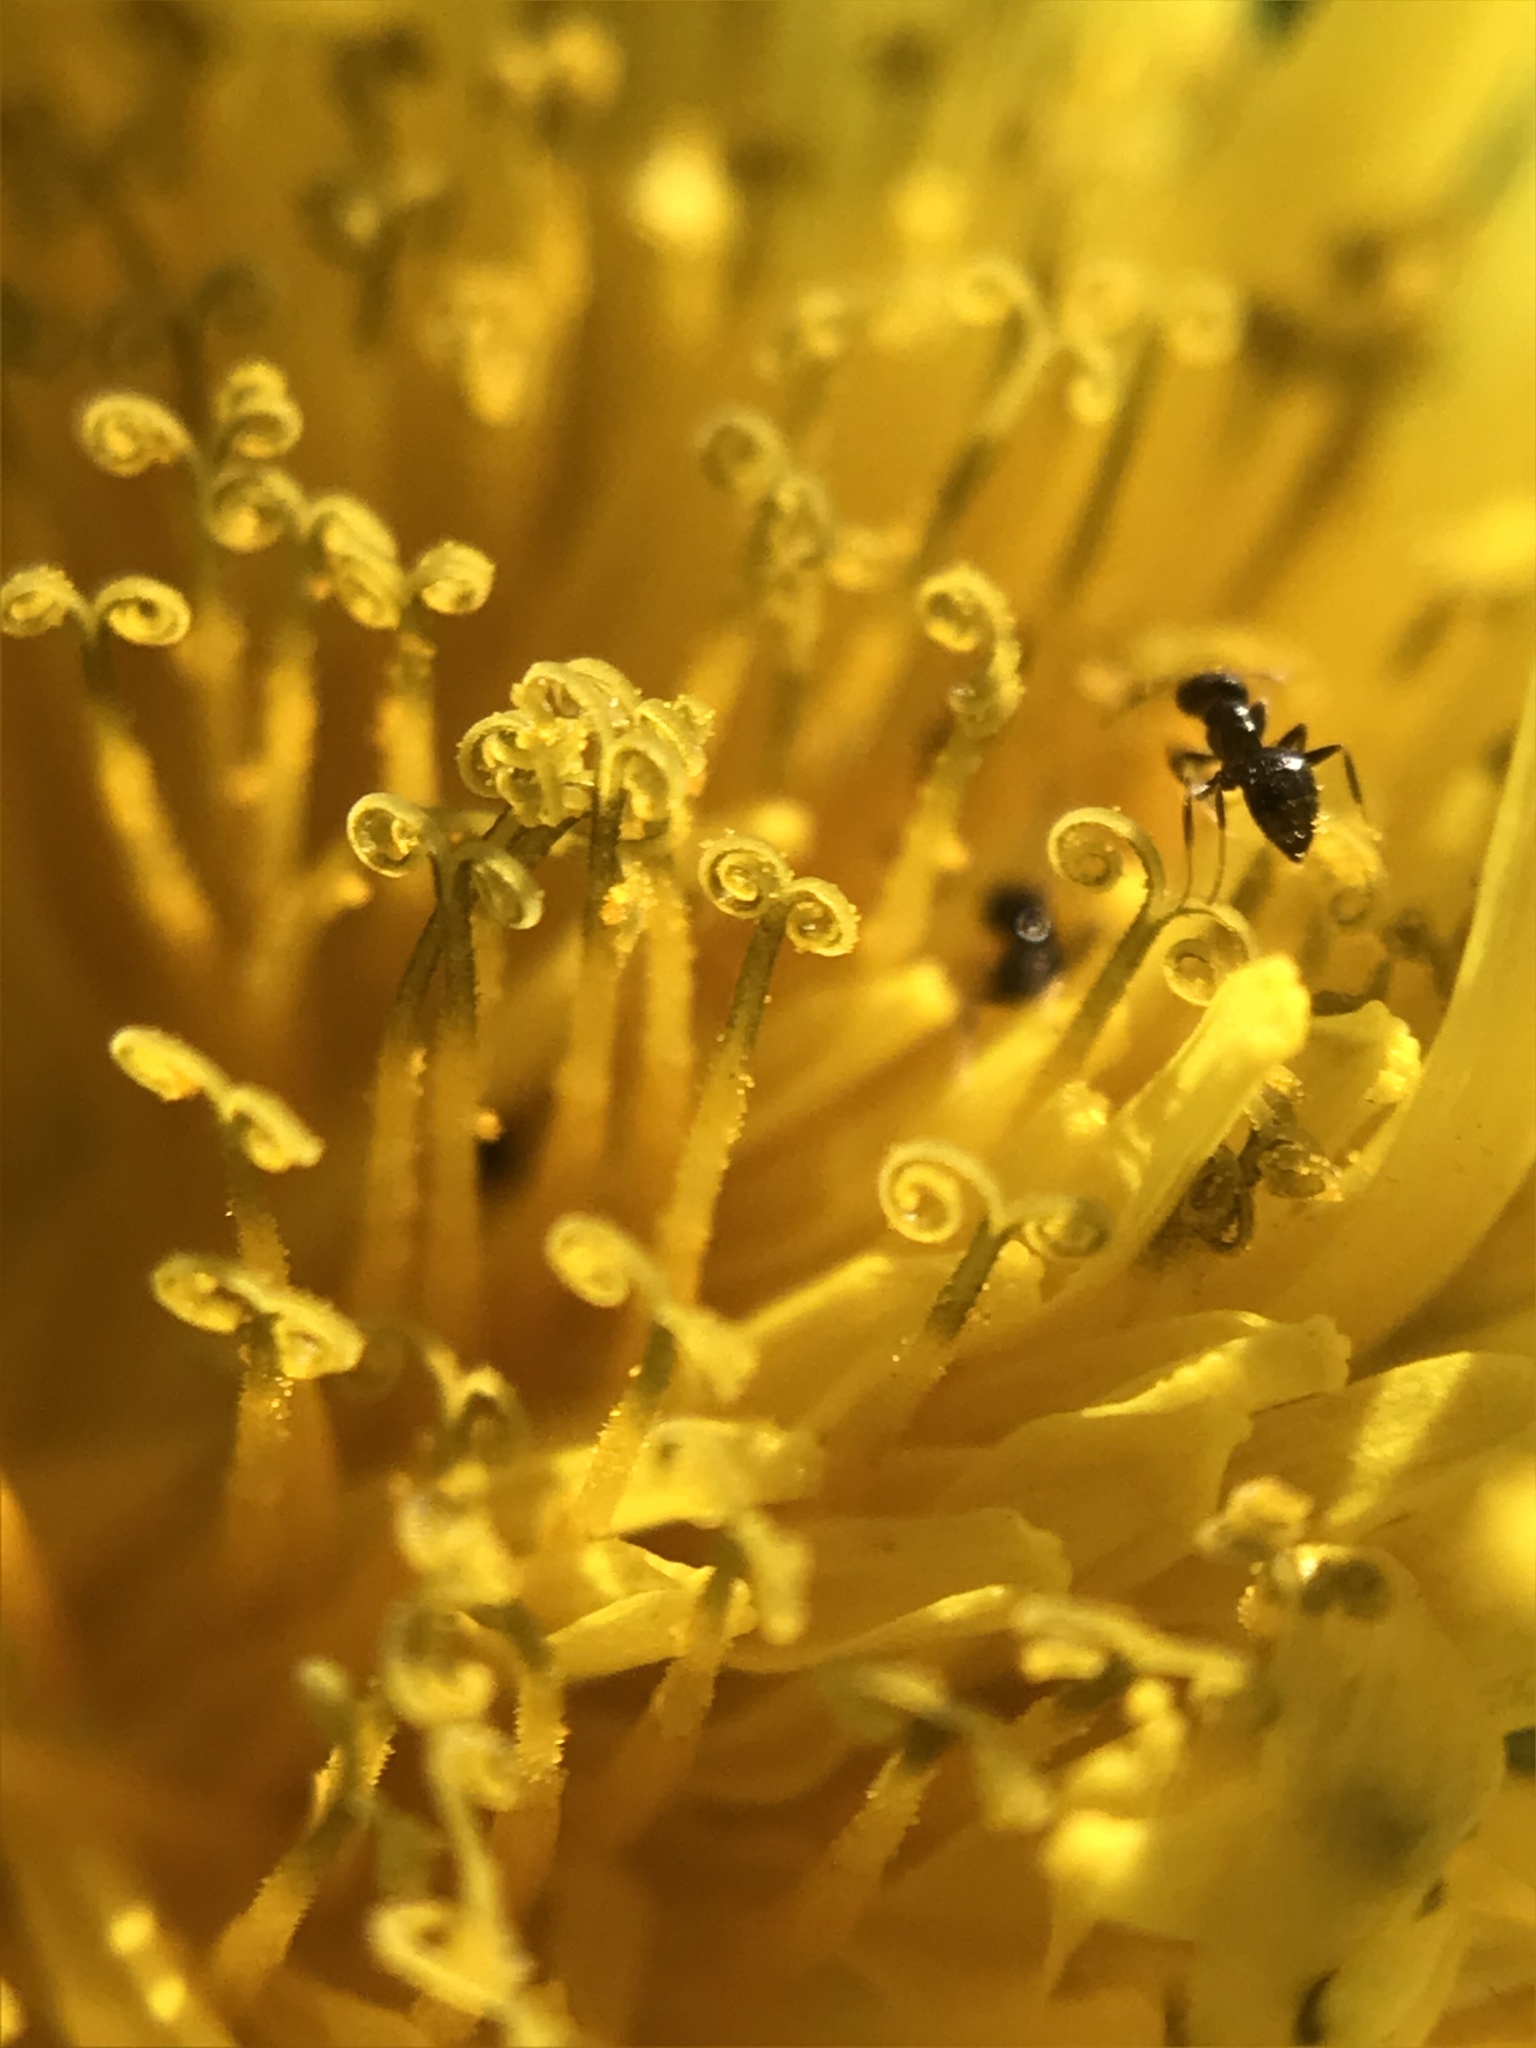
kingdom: Plantae
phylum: Tracheophyta
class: Magnoliopsida
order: Asterales
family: Asteraceae
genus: Taraxacum
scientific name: Taraxacum officinale
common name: Common dandelion
